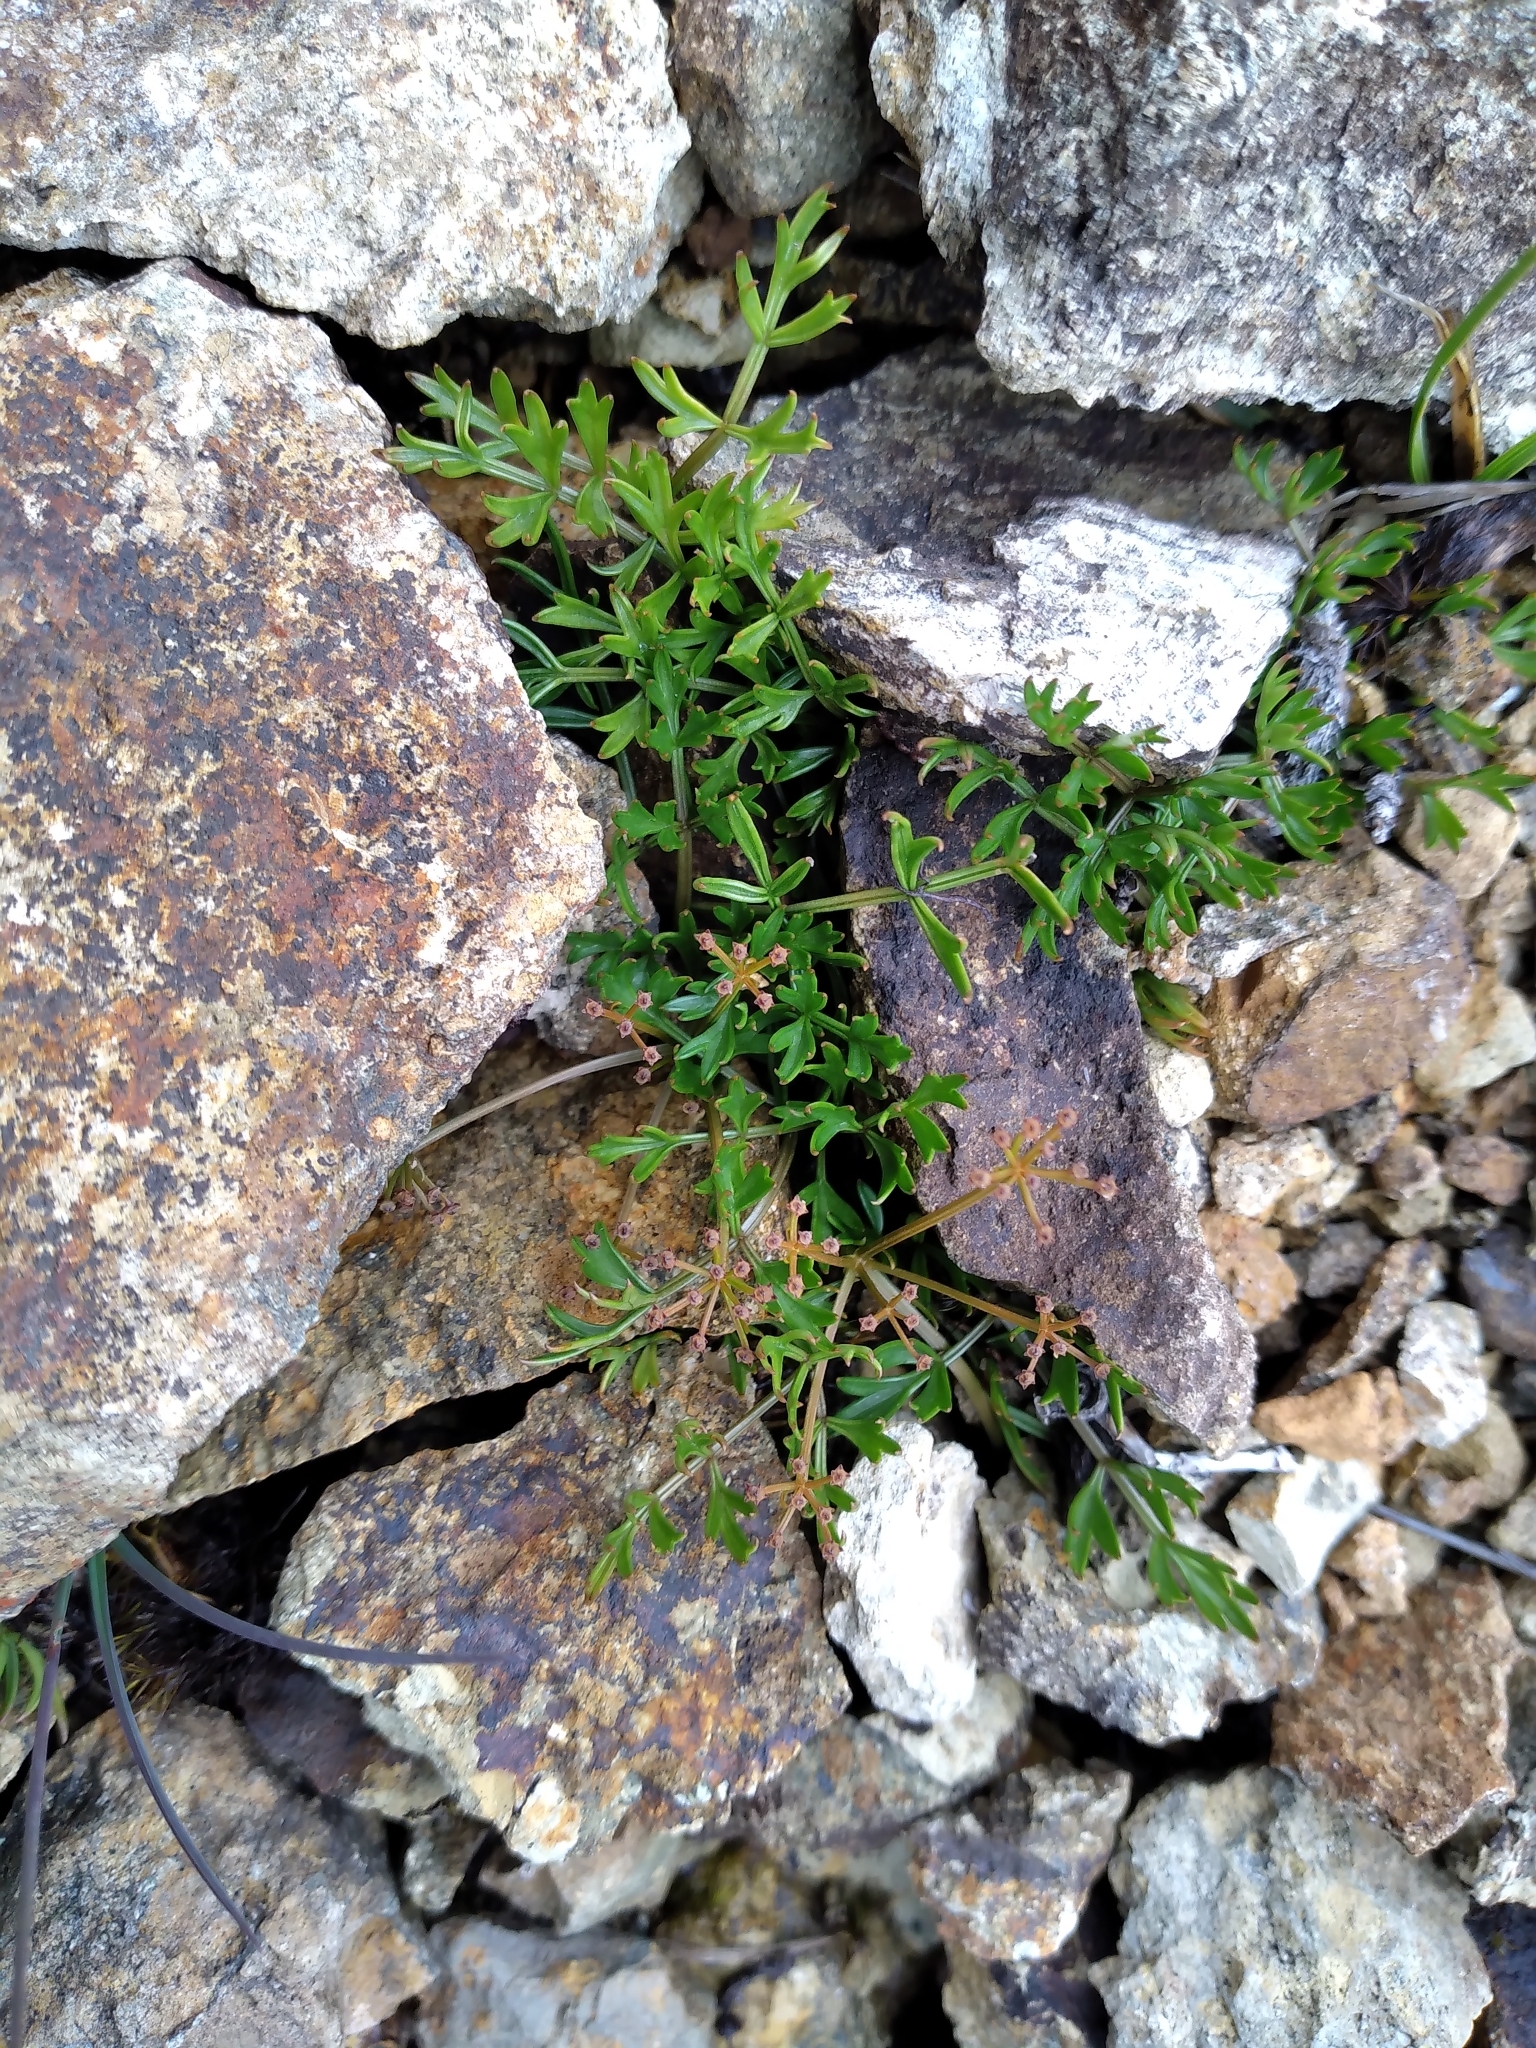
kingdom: Plantae
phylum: Tracheophyta
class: Magnoliopsida
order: Apiales
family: Apiaceae
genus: Anisotome
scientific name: Anisotome deltoidea
